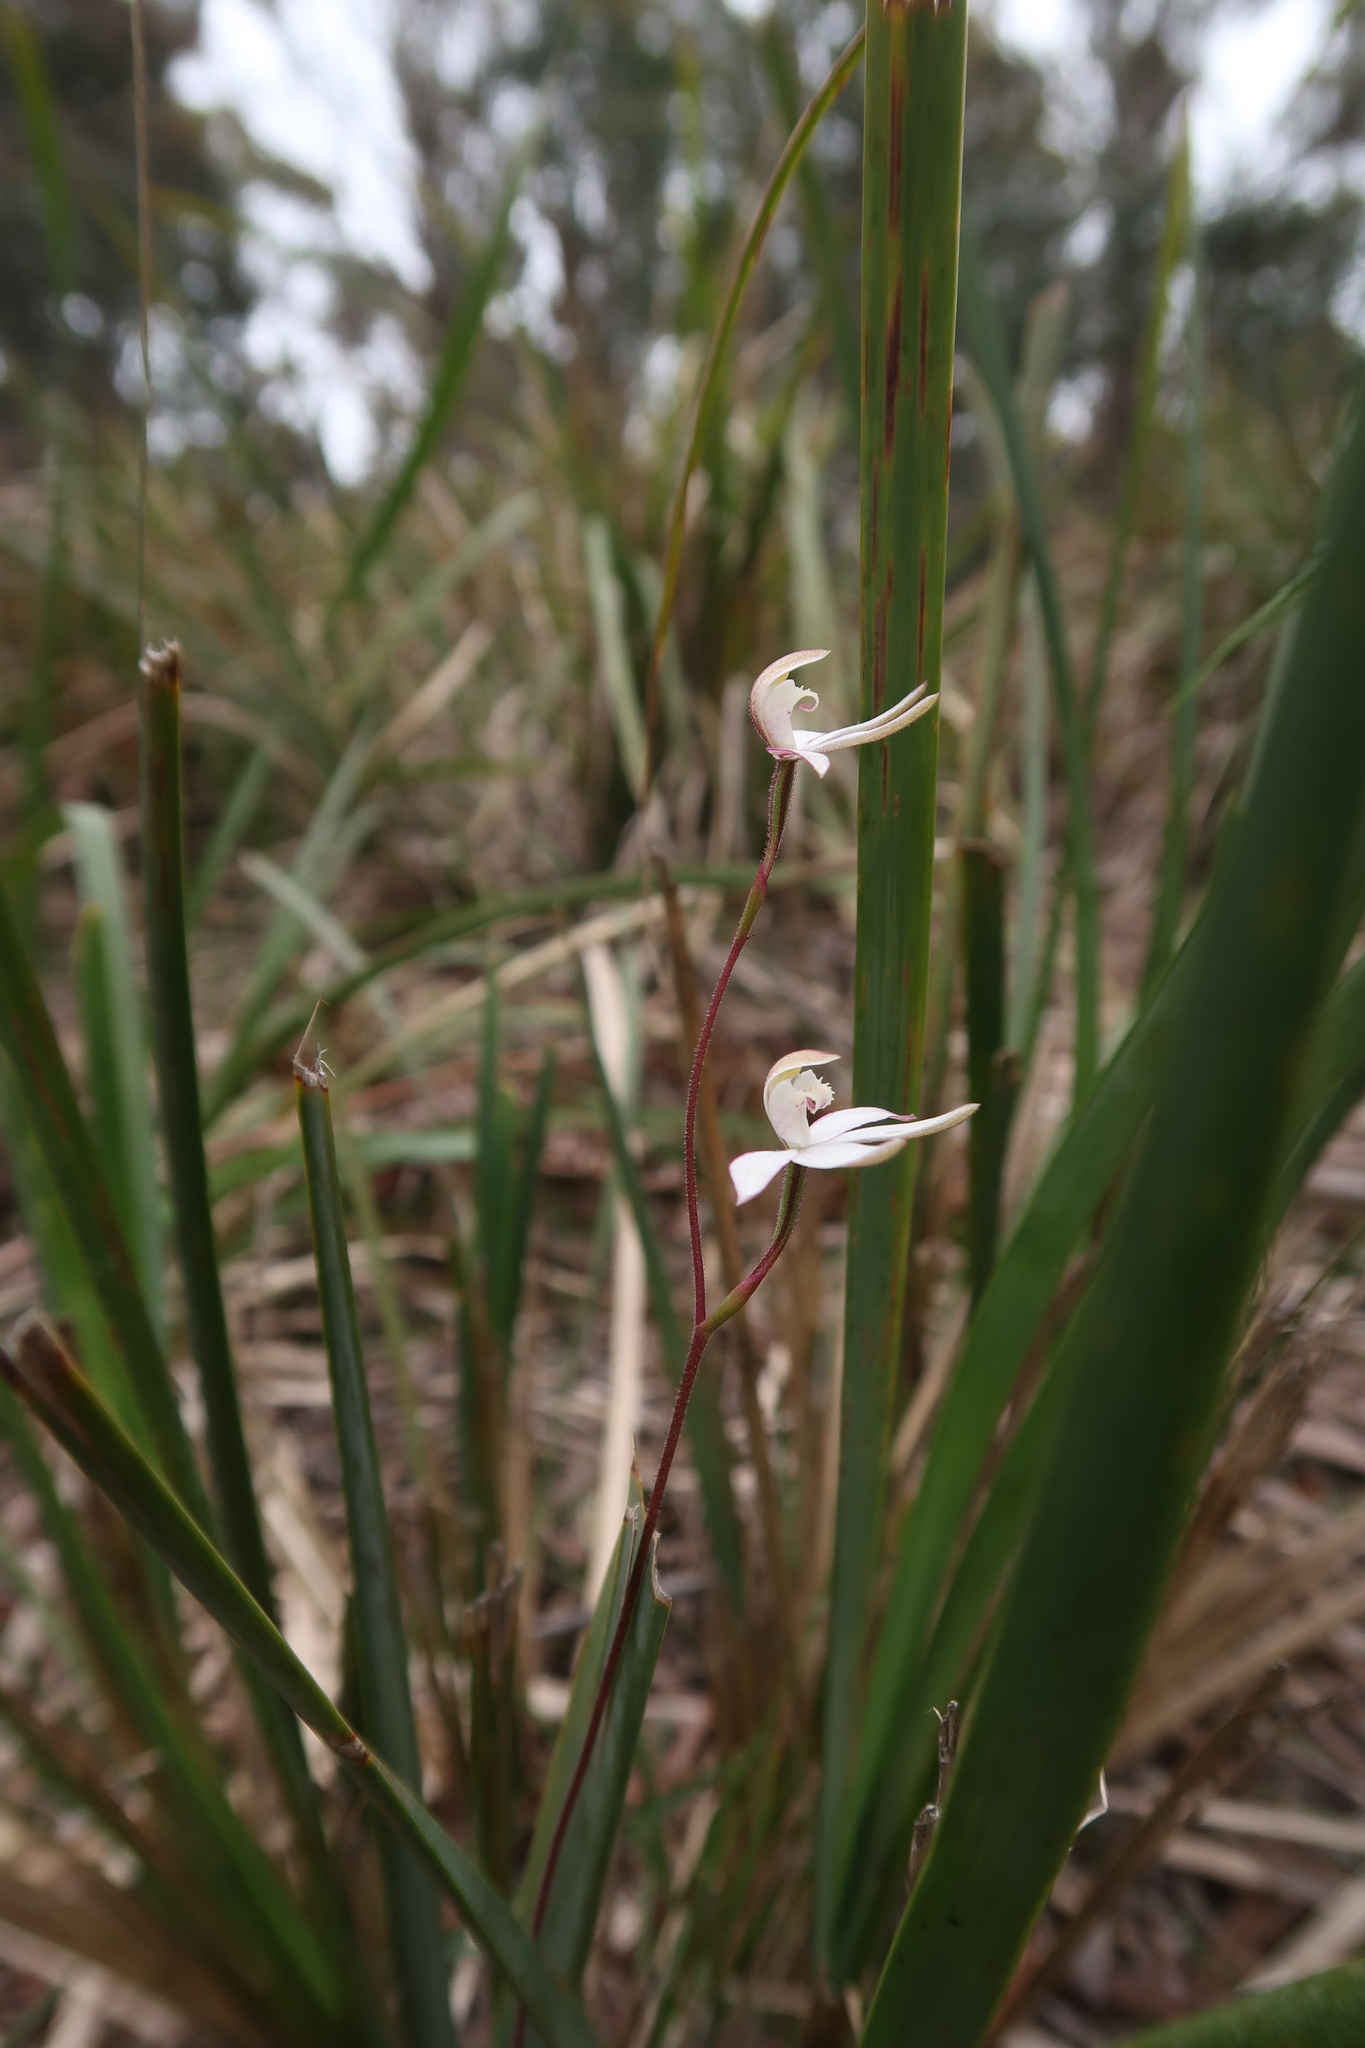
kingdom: Plantae
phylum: Tracheophyta
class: Liliopsida
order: Asparagales
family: Orchidaceae
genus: Caladenia
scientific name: Caladenia gracilis
